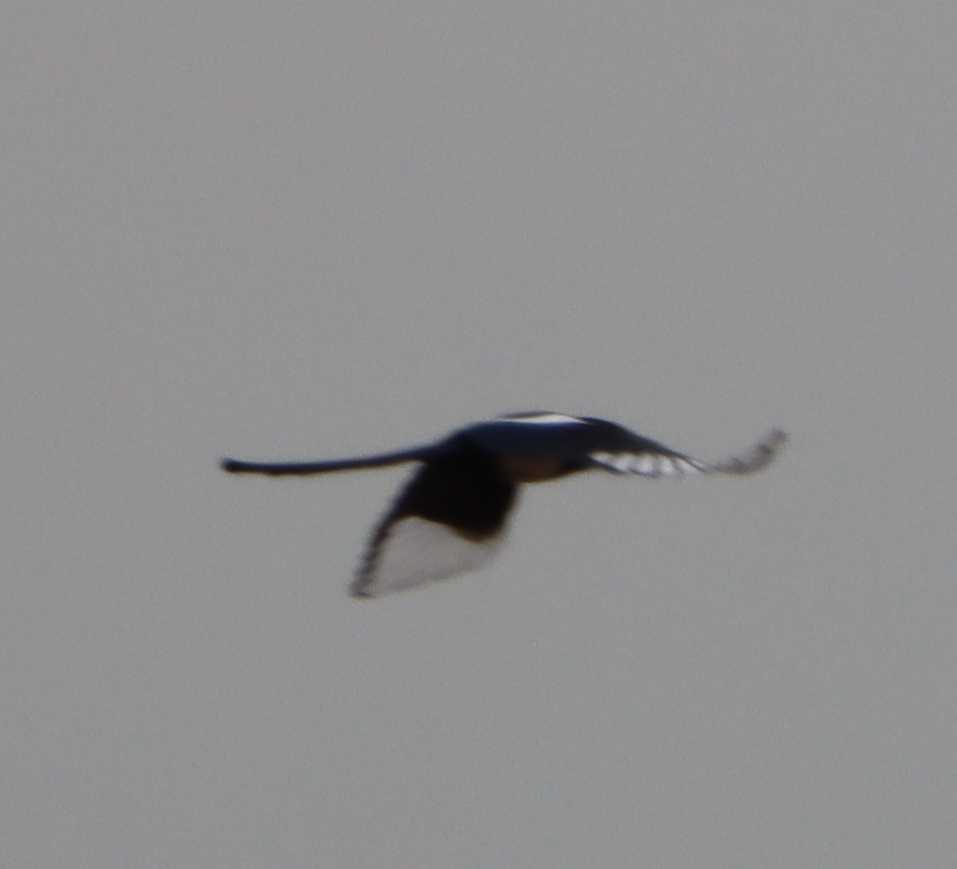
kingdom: Animalia
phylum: Chordata
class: Aves
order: Passeriformes
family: Corvidae
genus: Pica
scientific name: Pica hudsonia
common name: Black-billed magpie
